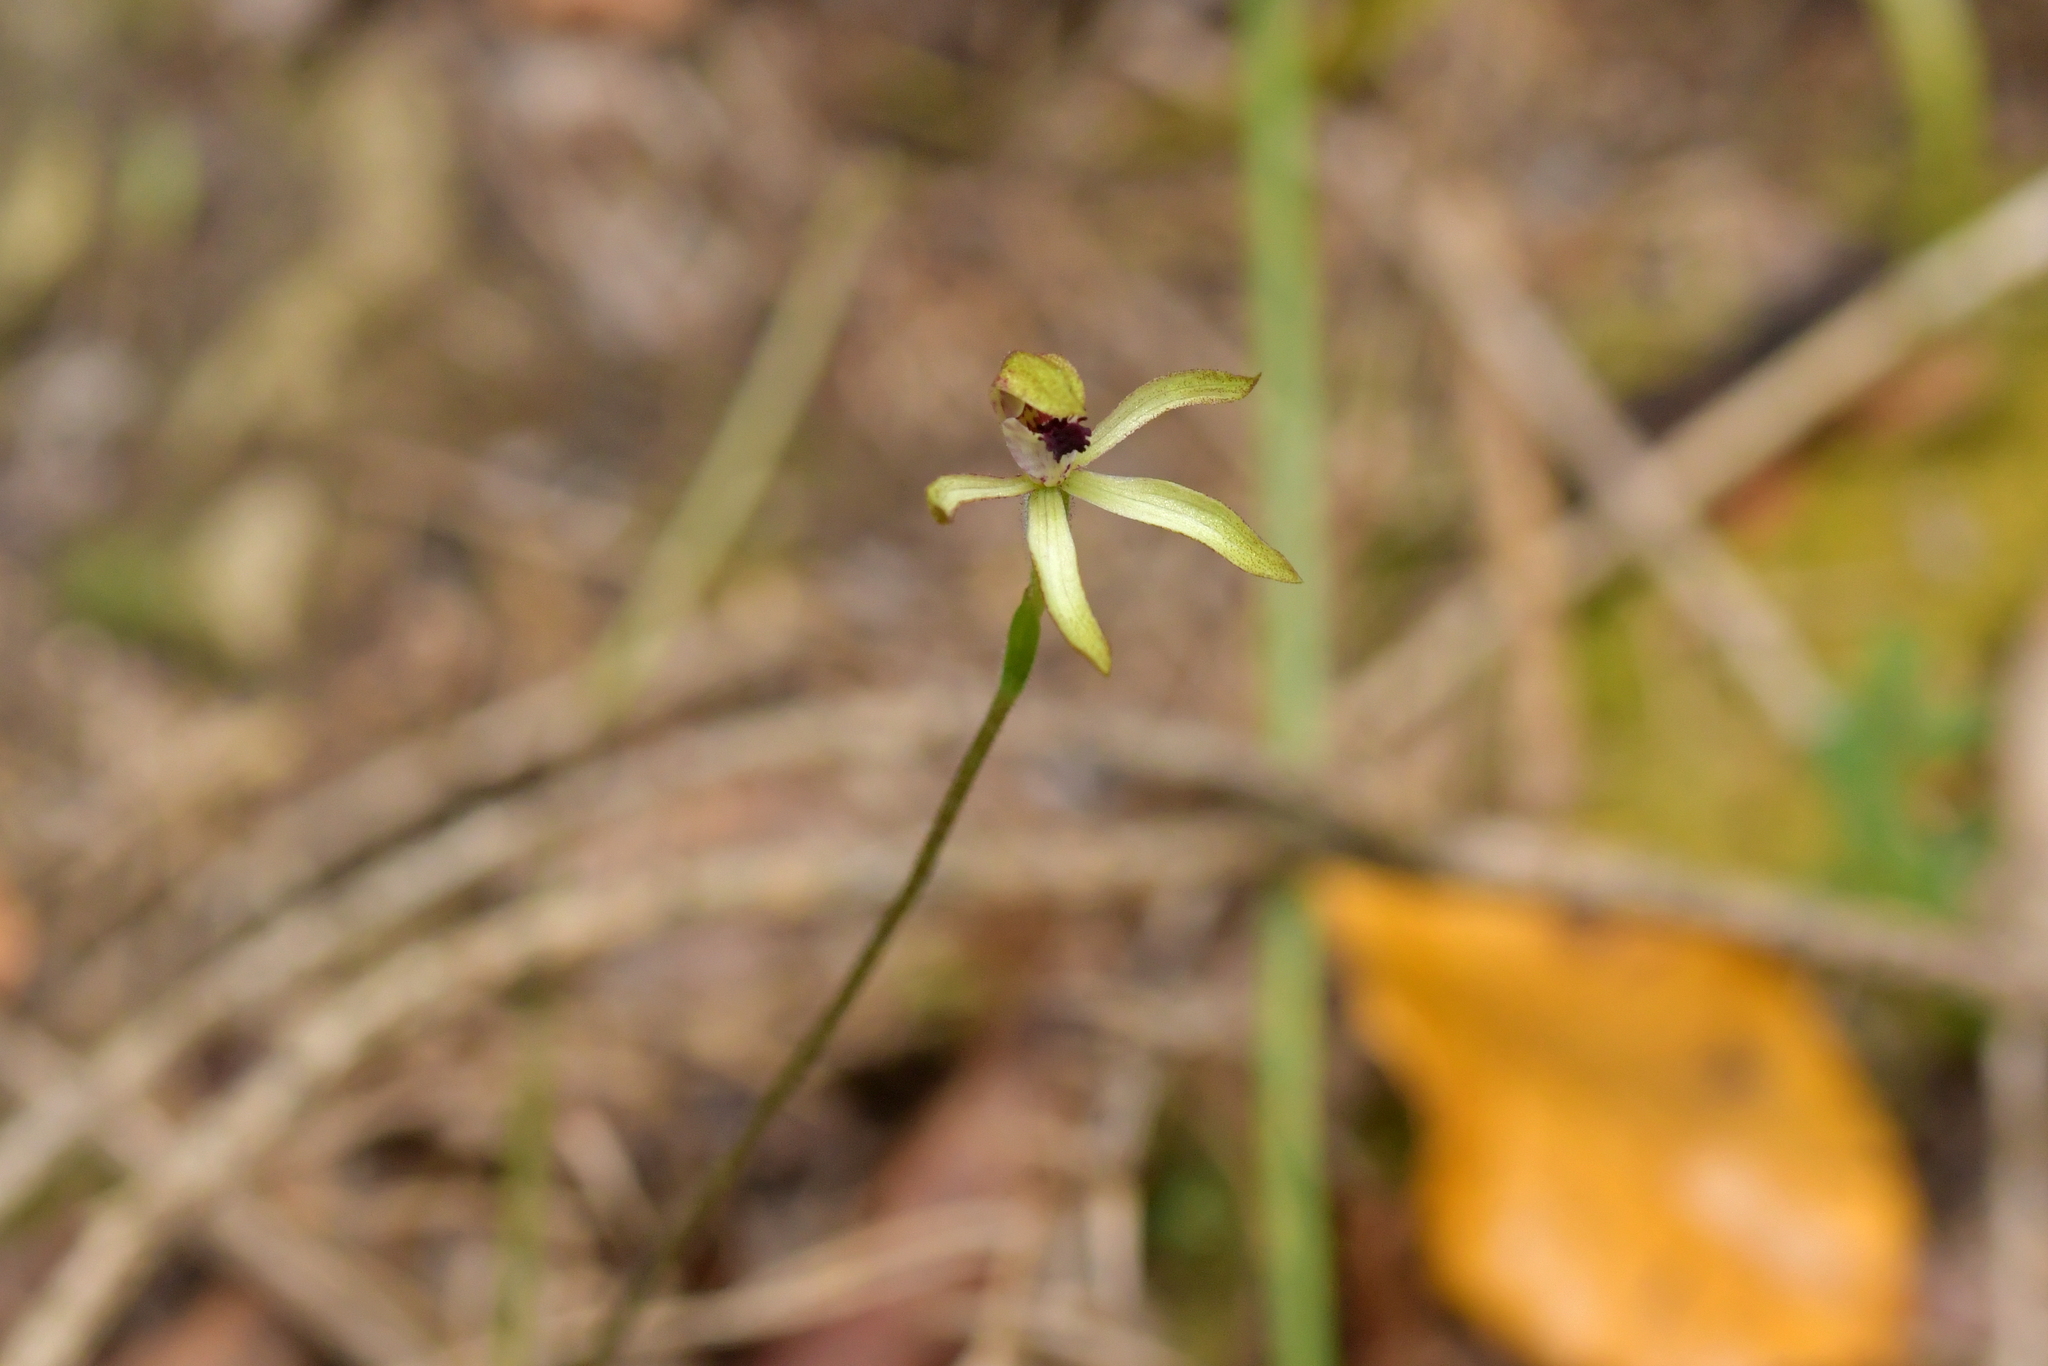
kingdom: Plantae
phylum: Tracheophyta
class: Liliopsida
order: Asparagales
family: Orchidaceae
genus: Caladenia
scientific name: Caladenia atradenia
